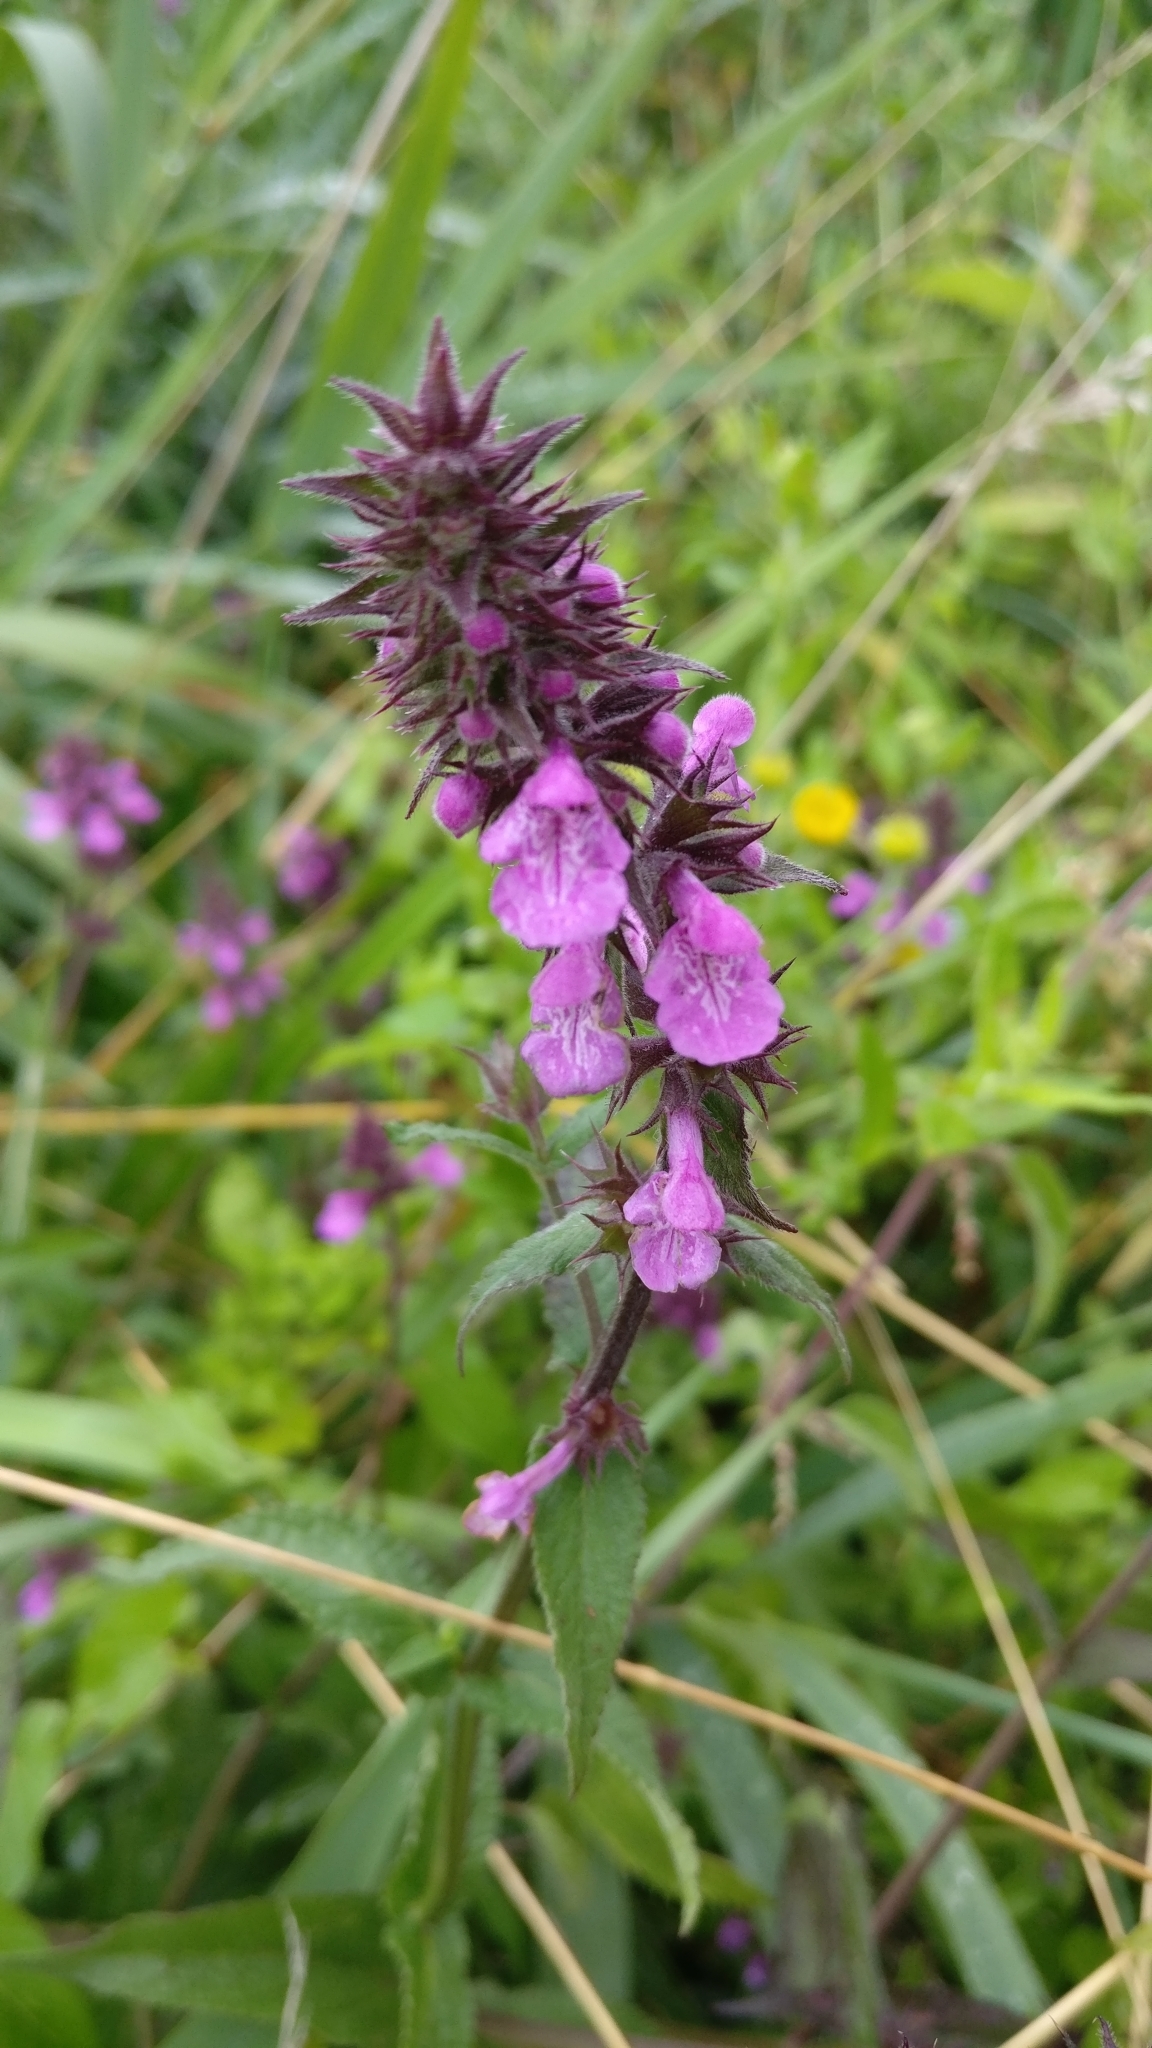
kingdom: Plantae
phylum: Tracheophyta
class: Magnoliopsida
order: Lamiales
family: Lamiaceae
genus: Stachys
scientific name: Stachys palustris
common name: Marsh woundwort
